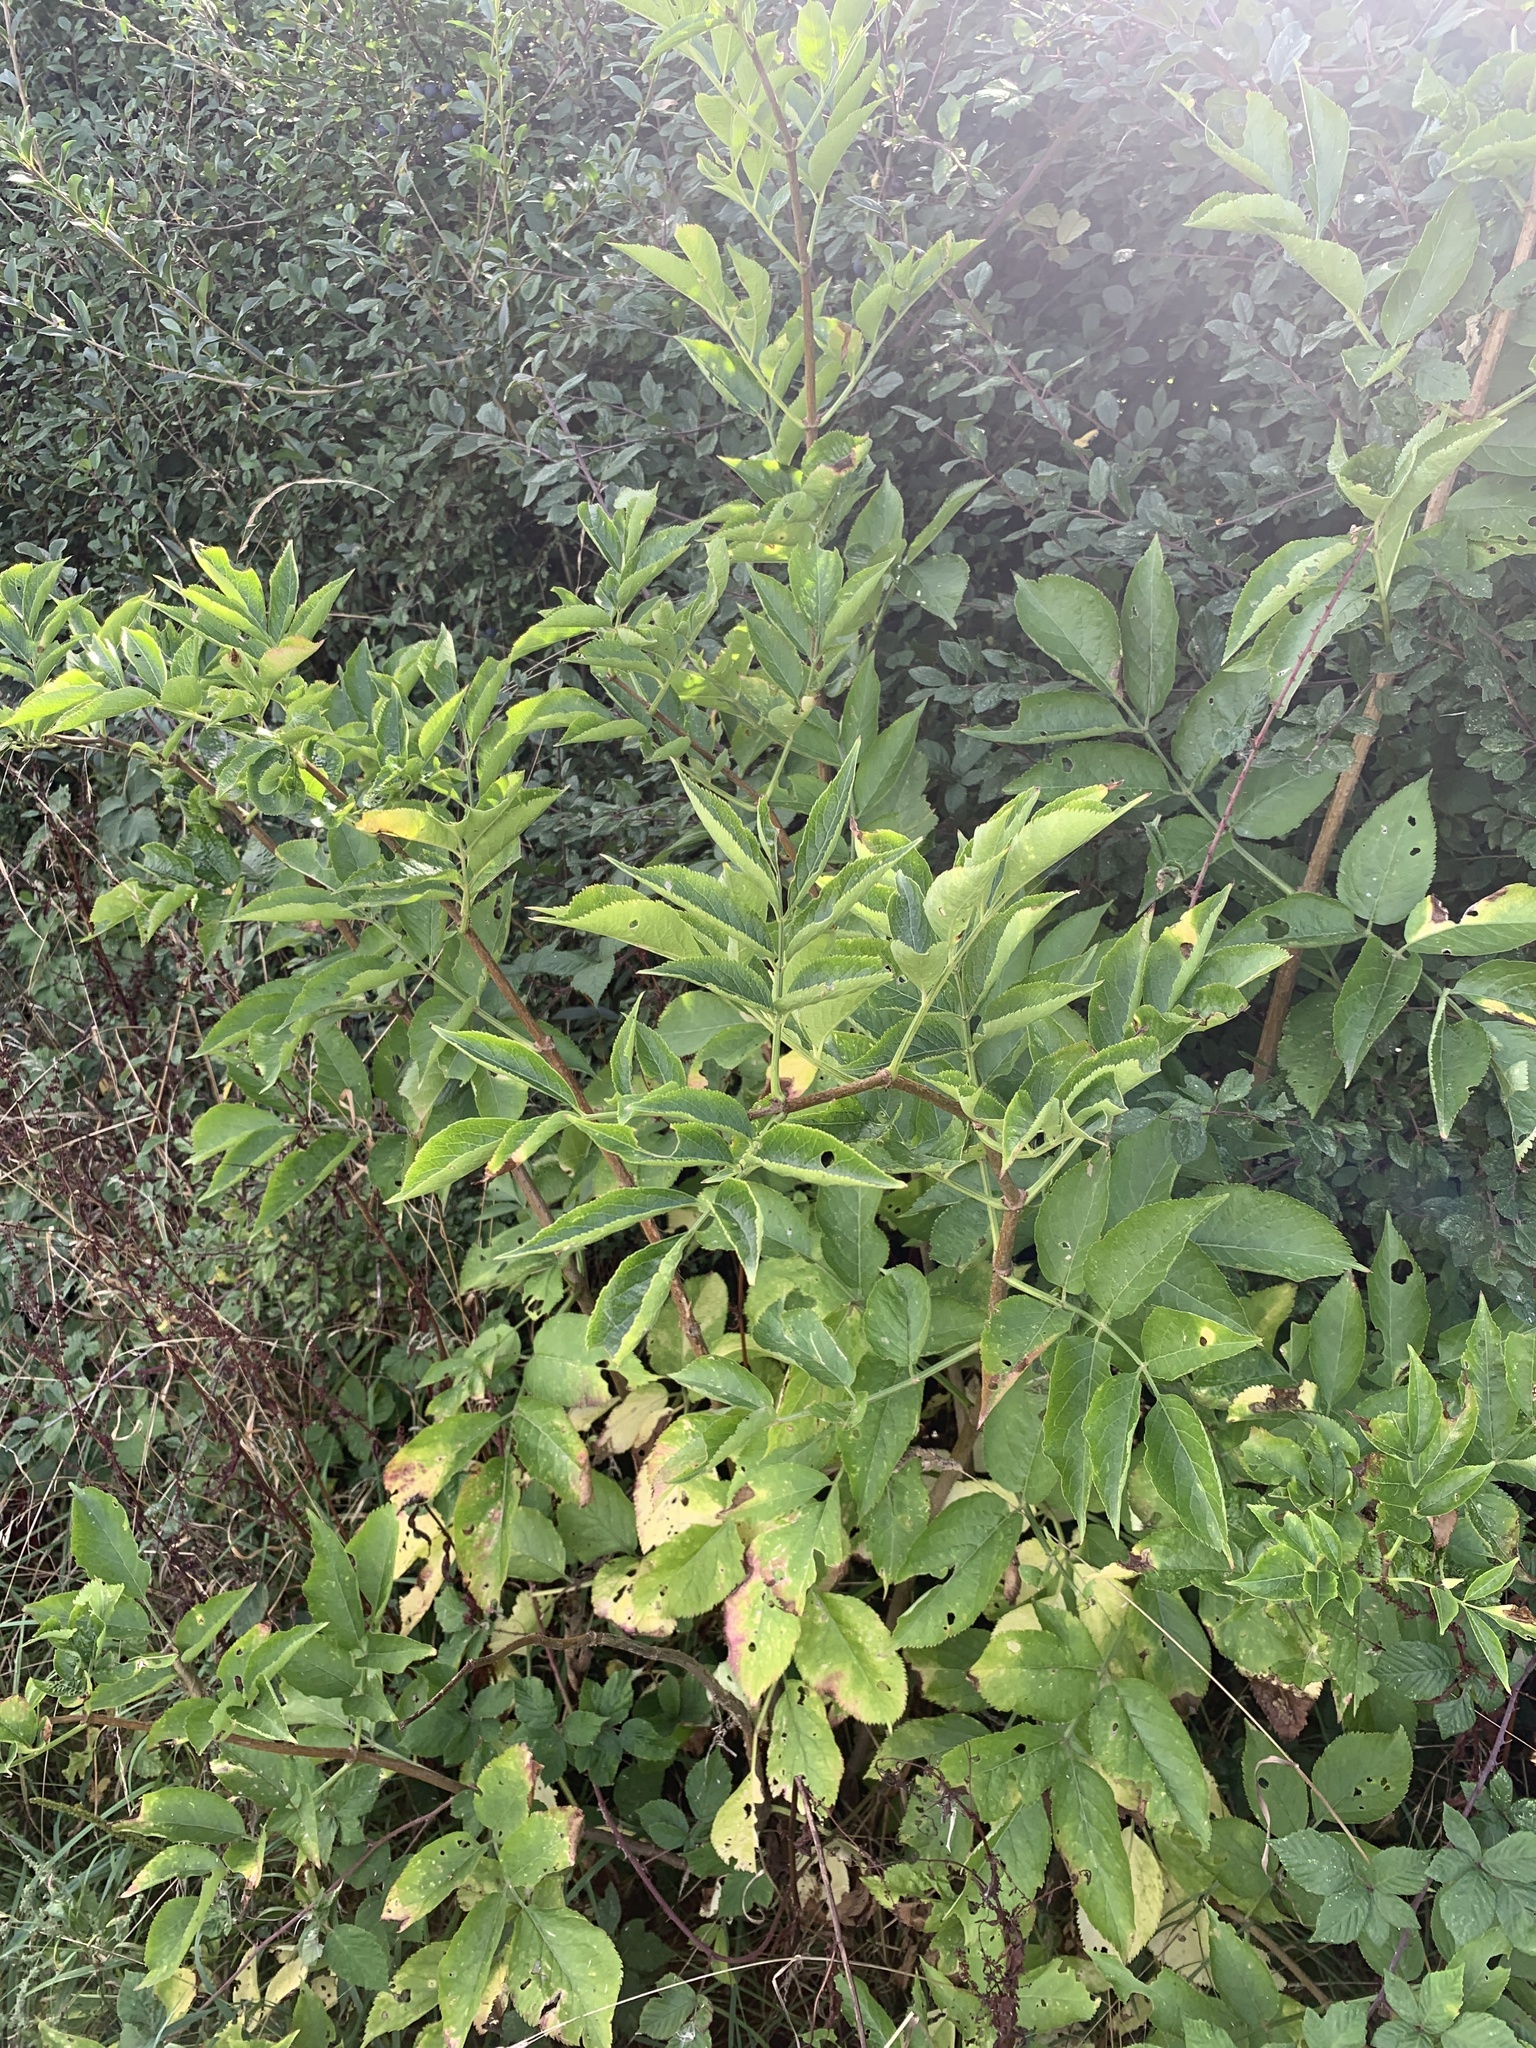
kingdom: Plantae
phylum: Tracheophyta
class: Magnoliopsida
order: Dipsacales
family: Viburnaceae
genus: Sambucus
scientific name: Sambucus nigra
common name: Elder
